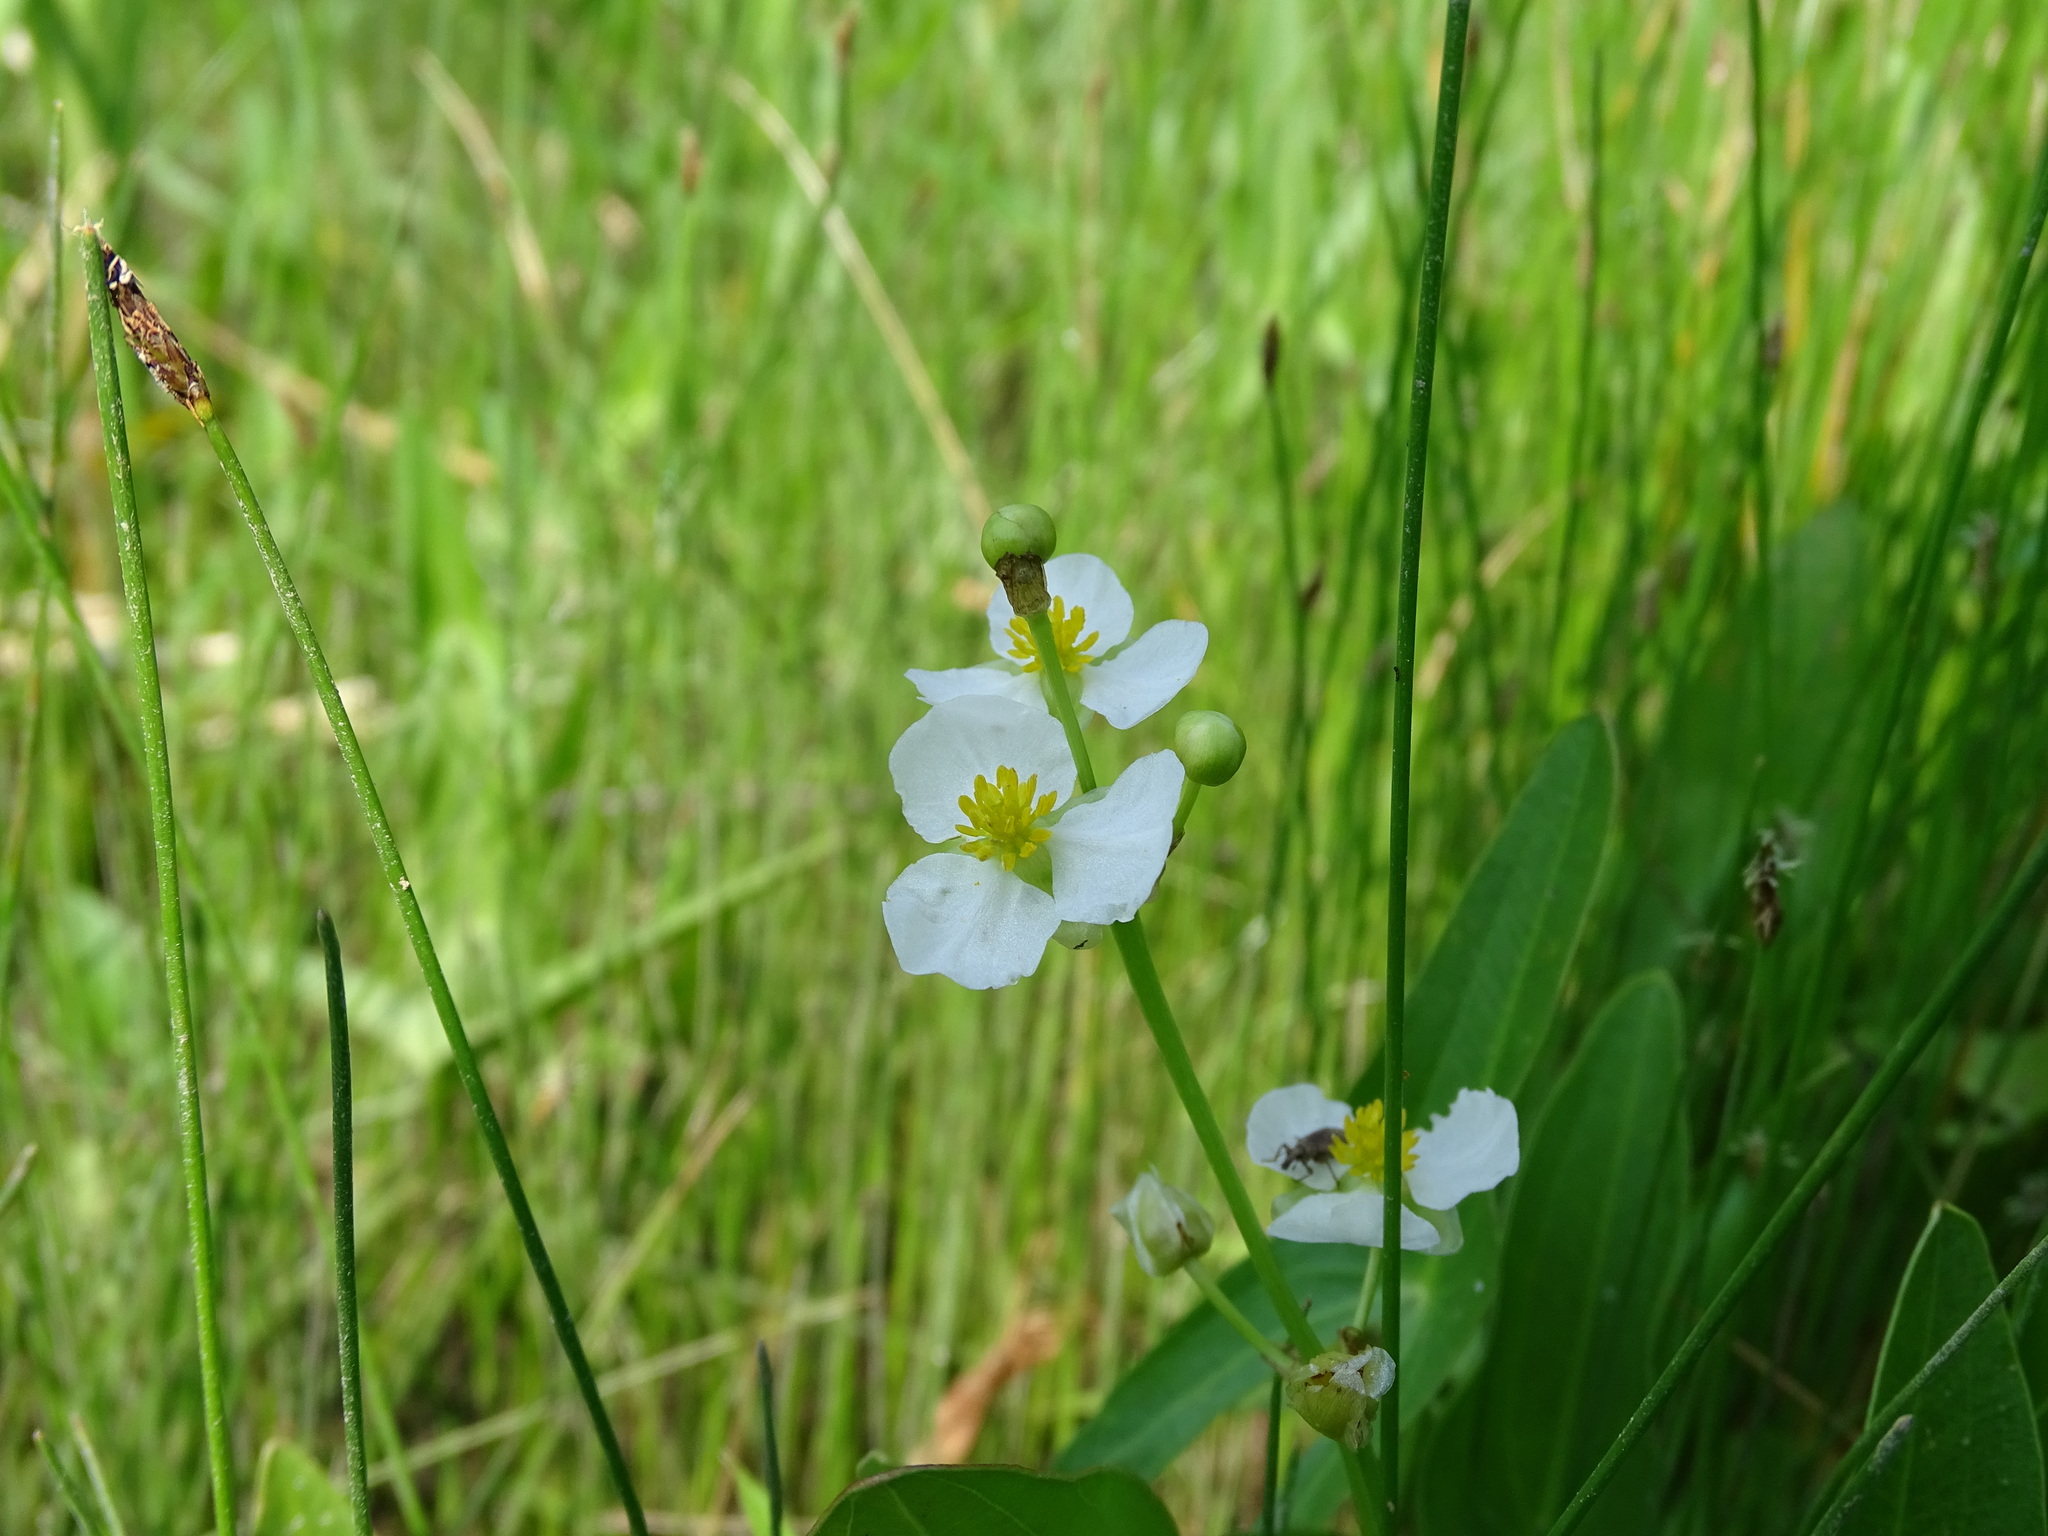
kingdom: Plantae
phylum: Tracheophyta
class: Liliopsida
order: Alismatales
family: Alismataceae
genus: Sagittaria
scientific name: Sagittaria latifolia
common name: Duck-potato
